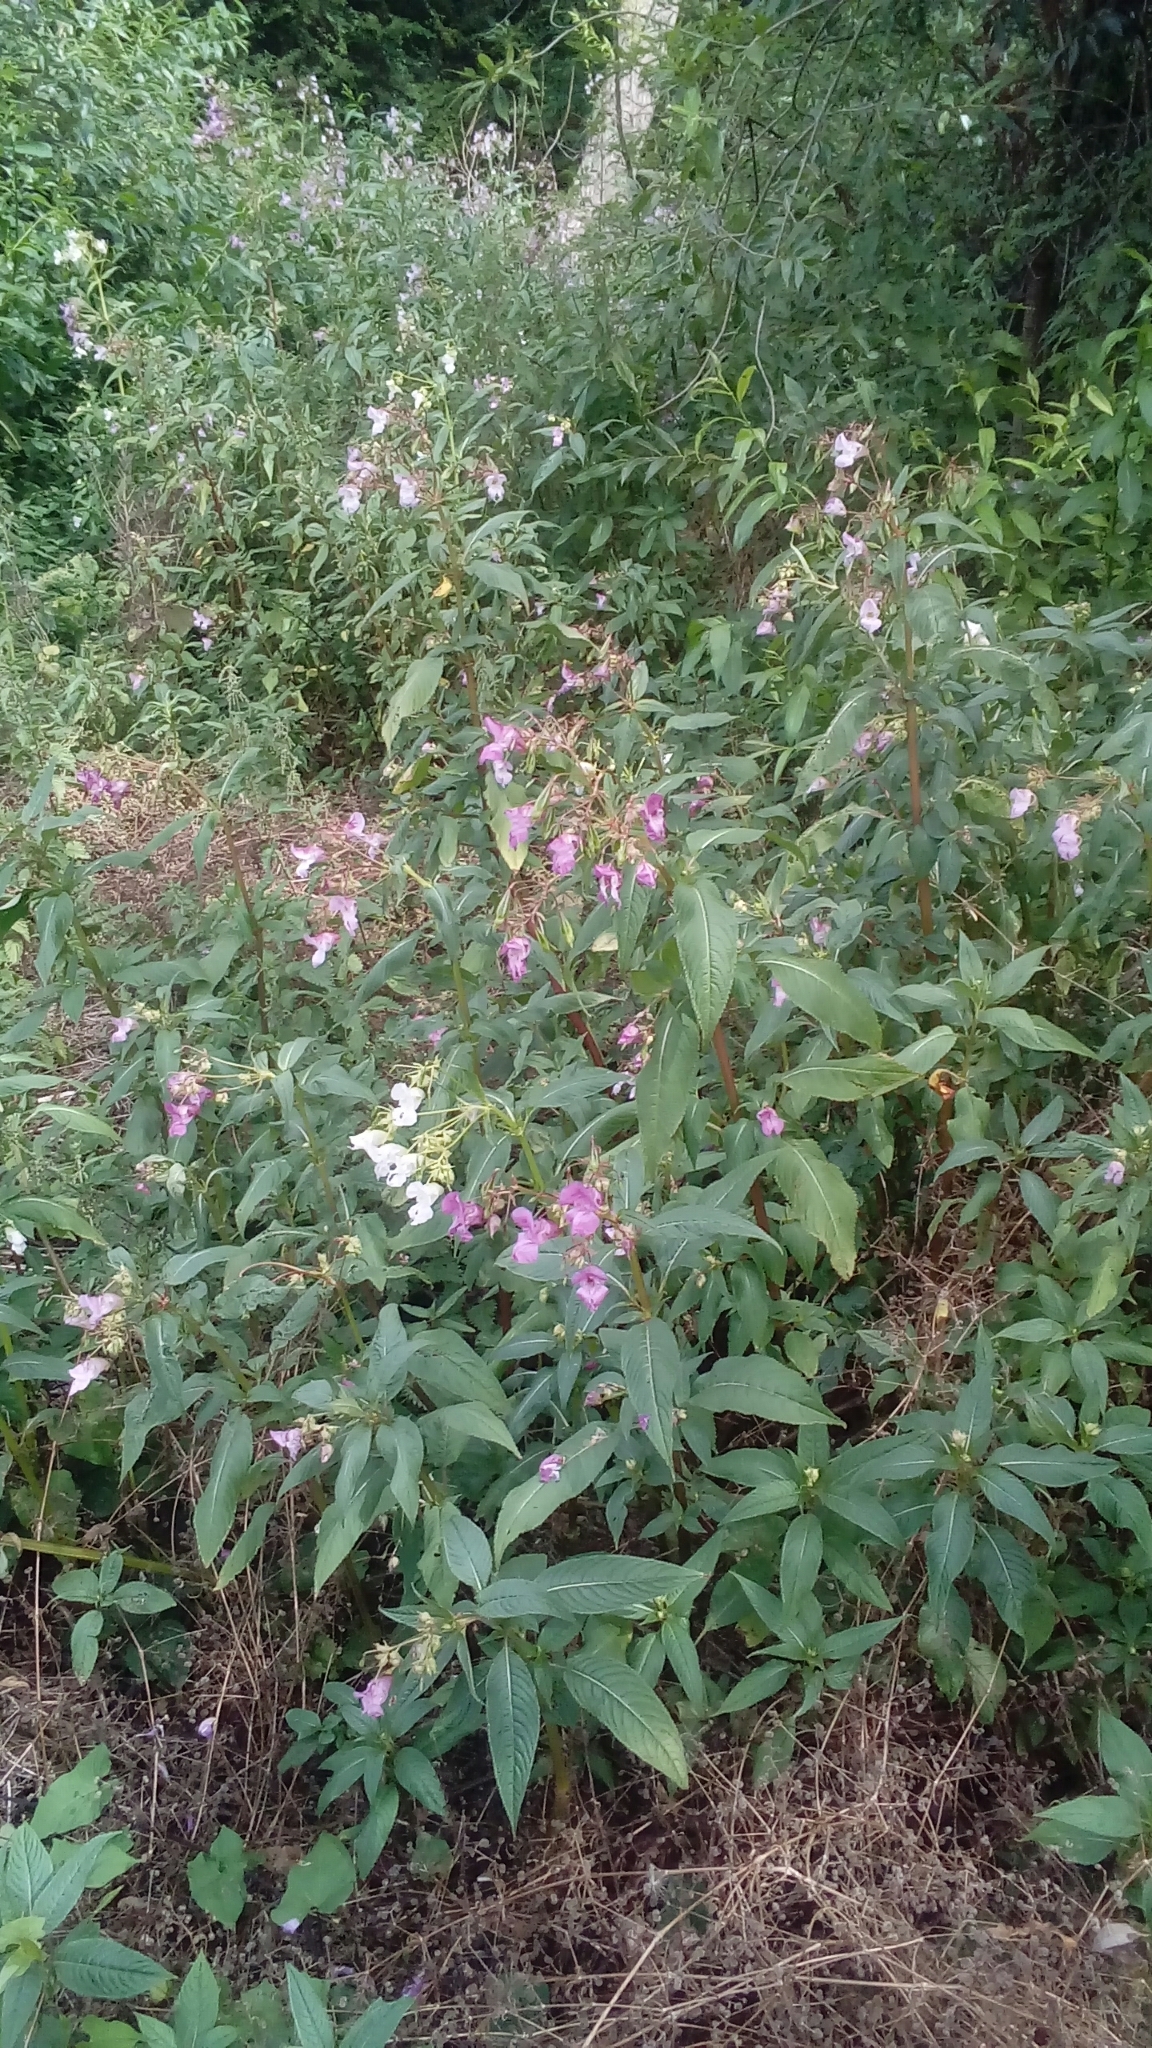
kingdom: Plantae
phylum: Tracheophyta
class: Magnoliopsida
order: Ericales
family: Balsaminaceae
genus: Impatiens
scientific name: Impatiens glandulifera
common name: Himalayan balsam
